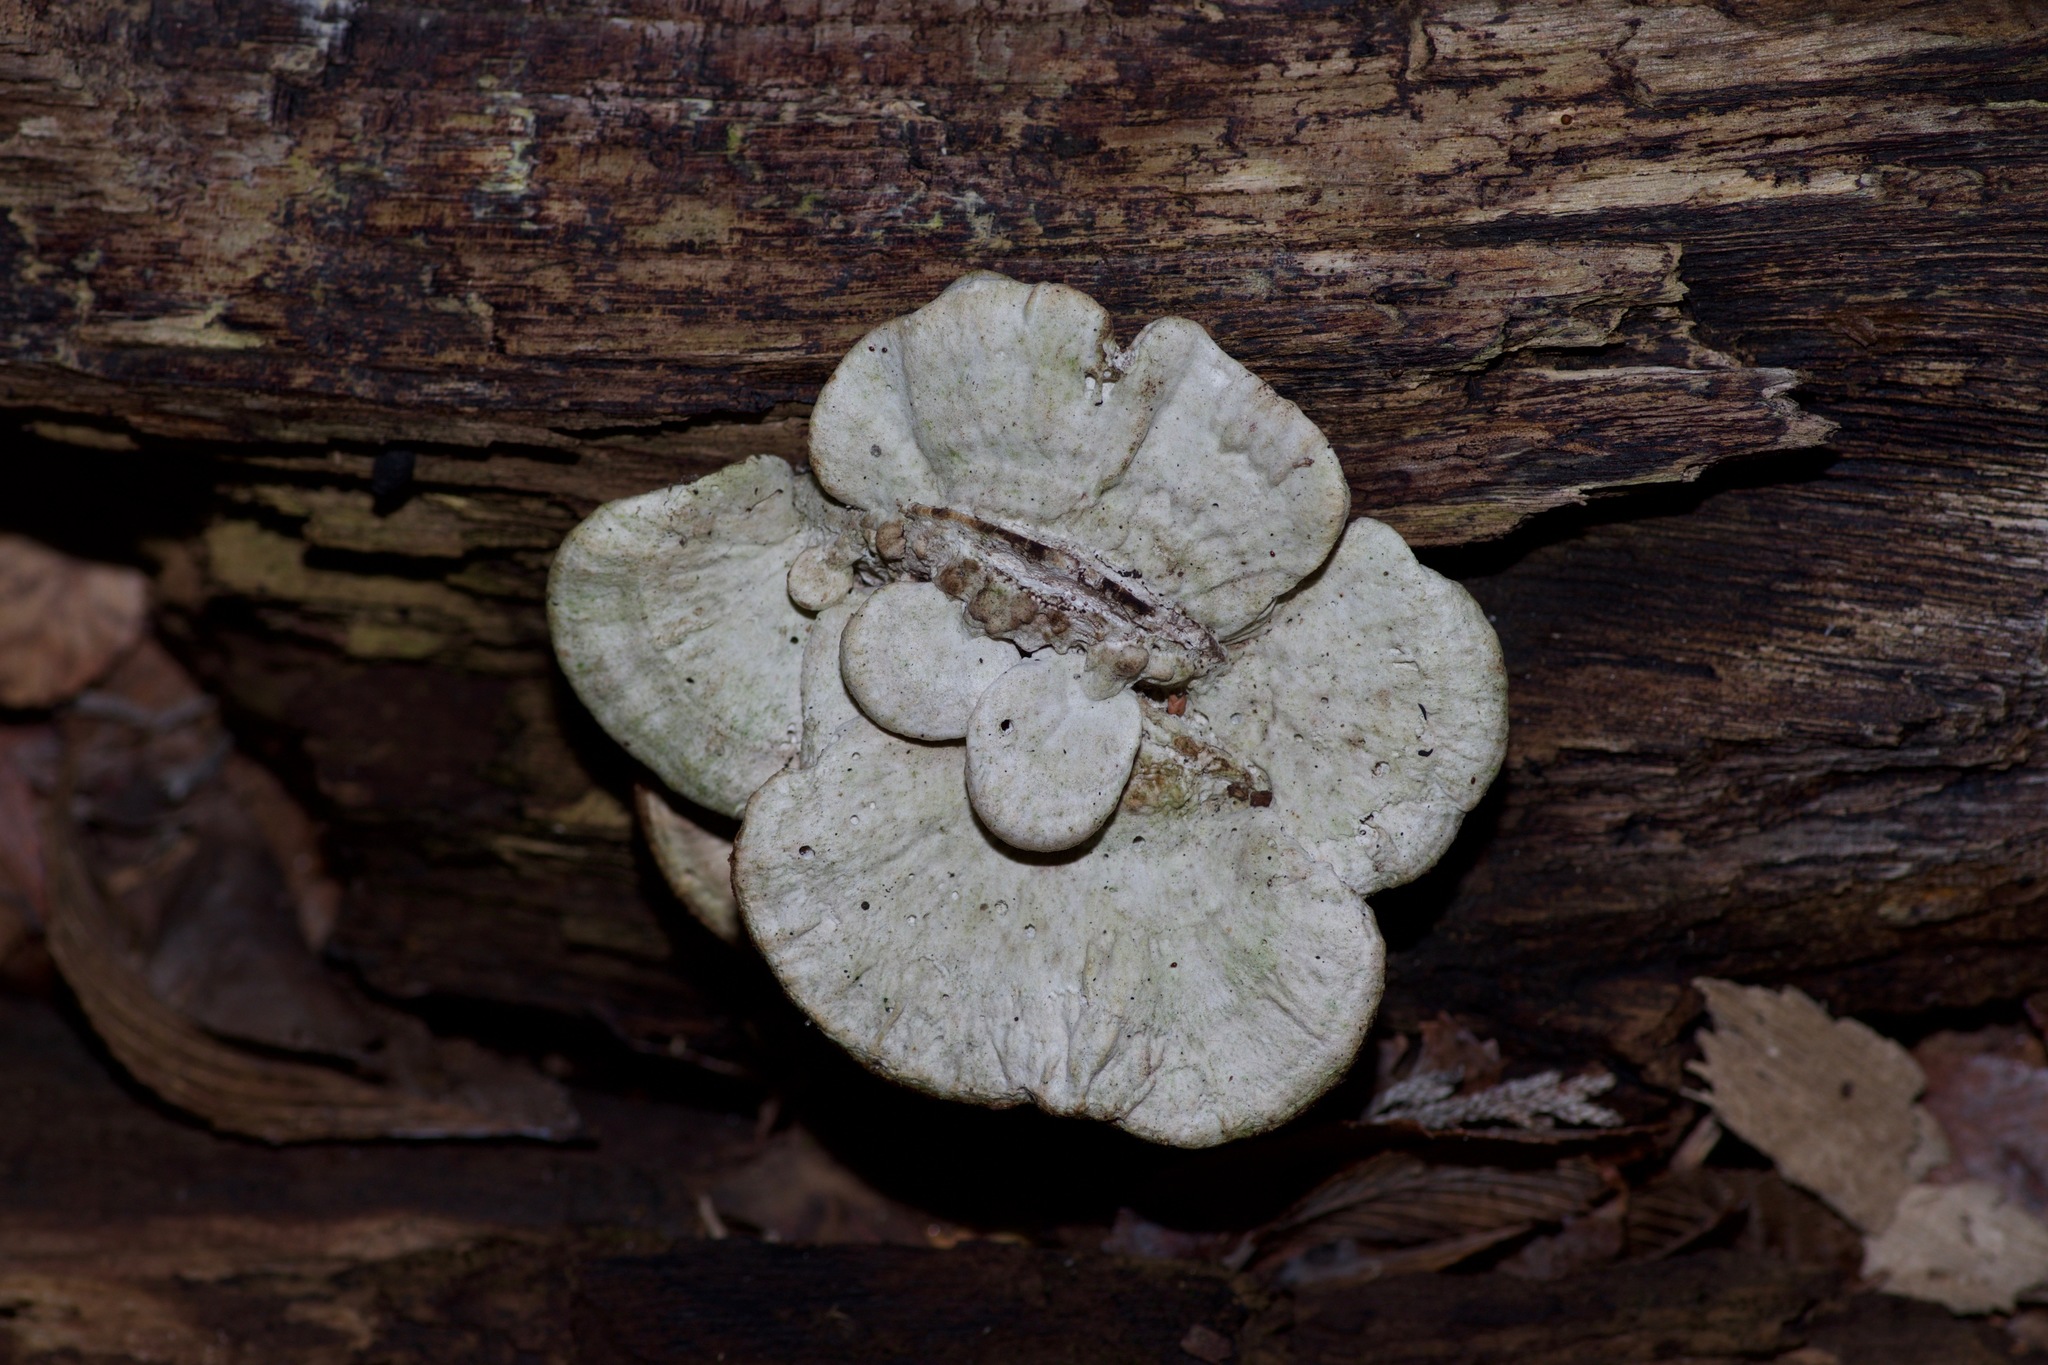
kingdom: Fungi
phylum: Basidiomycota
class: Agaricomycetes
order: Polyporales
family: Polyporaceae
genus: Trametes
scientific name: Trametes gibbosa
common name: Lumpy bracket
